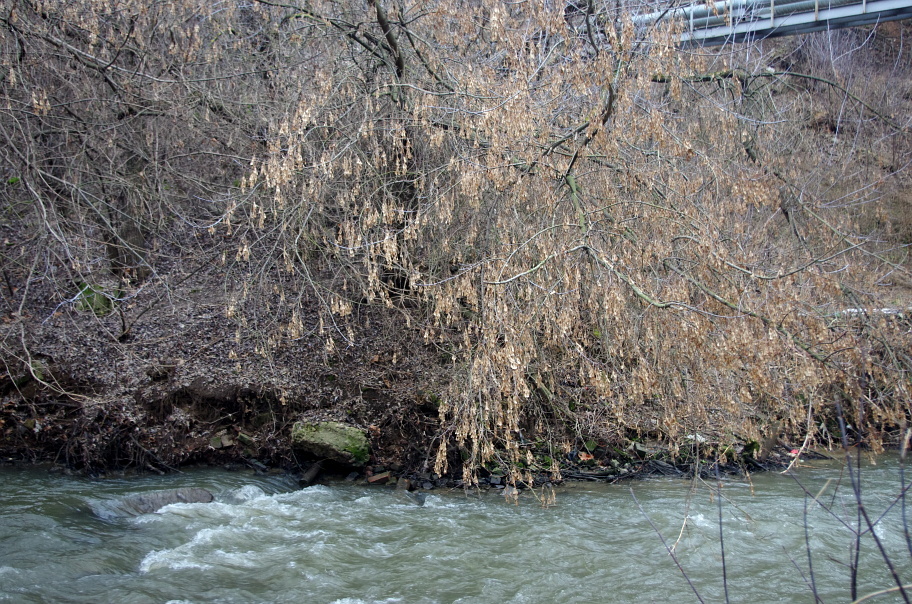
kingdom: Plantae
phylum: Tracheophyta
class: Magnoliopsida
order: Sapindales
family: Sapindaceae
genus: Acer
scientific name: Acer negundo
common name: Ashleaf maple
